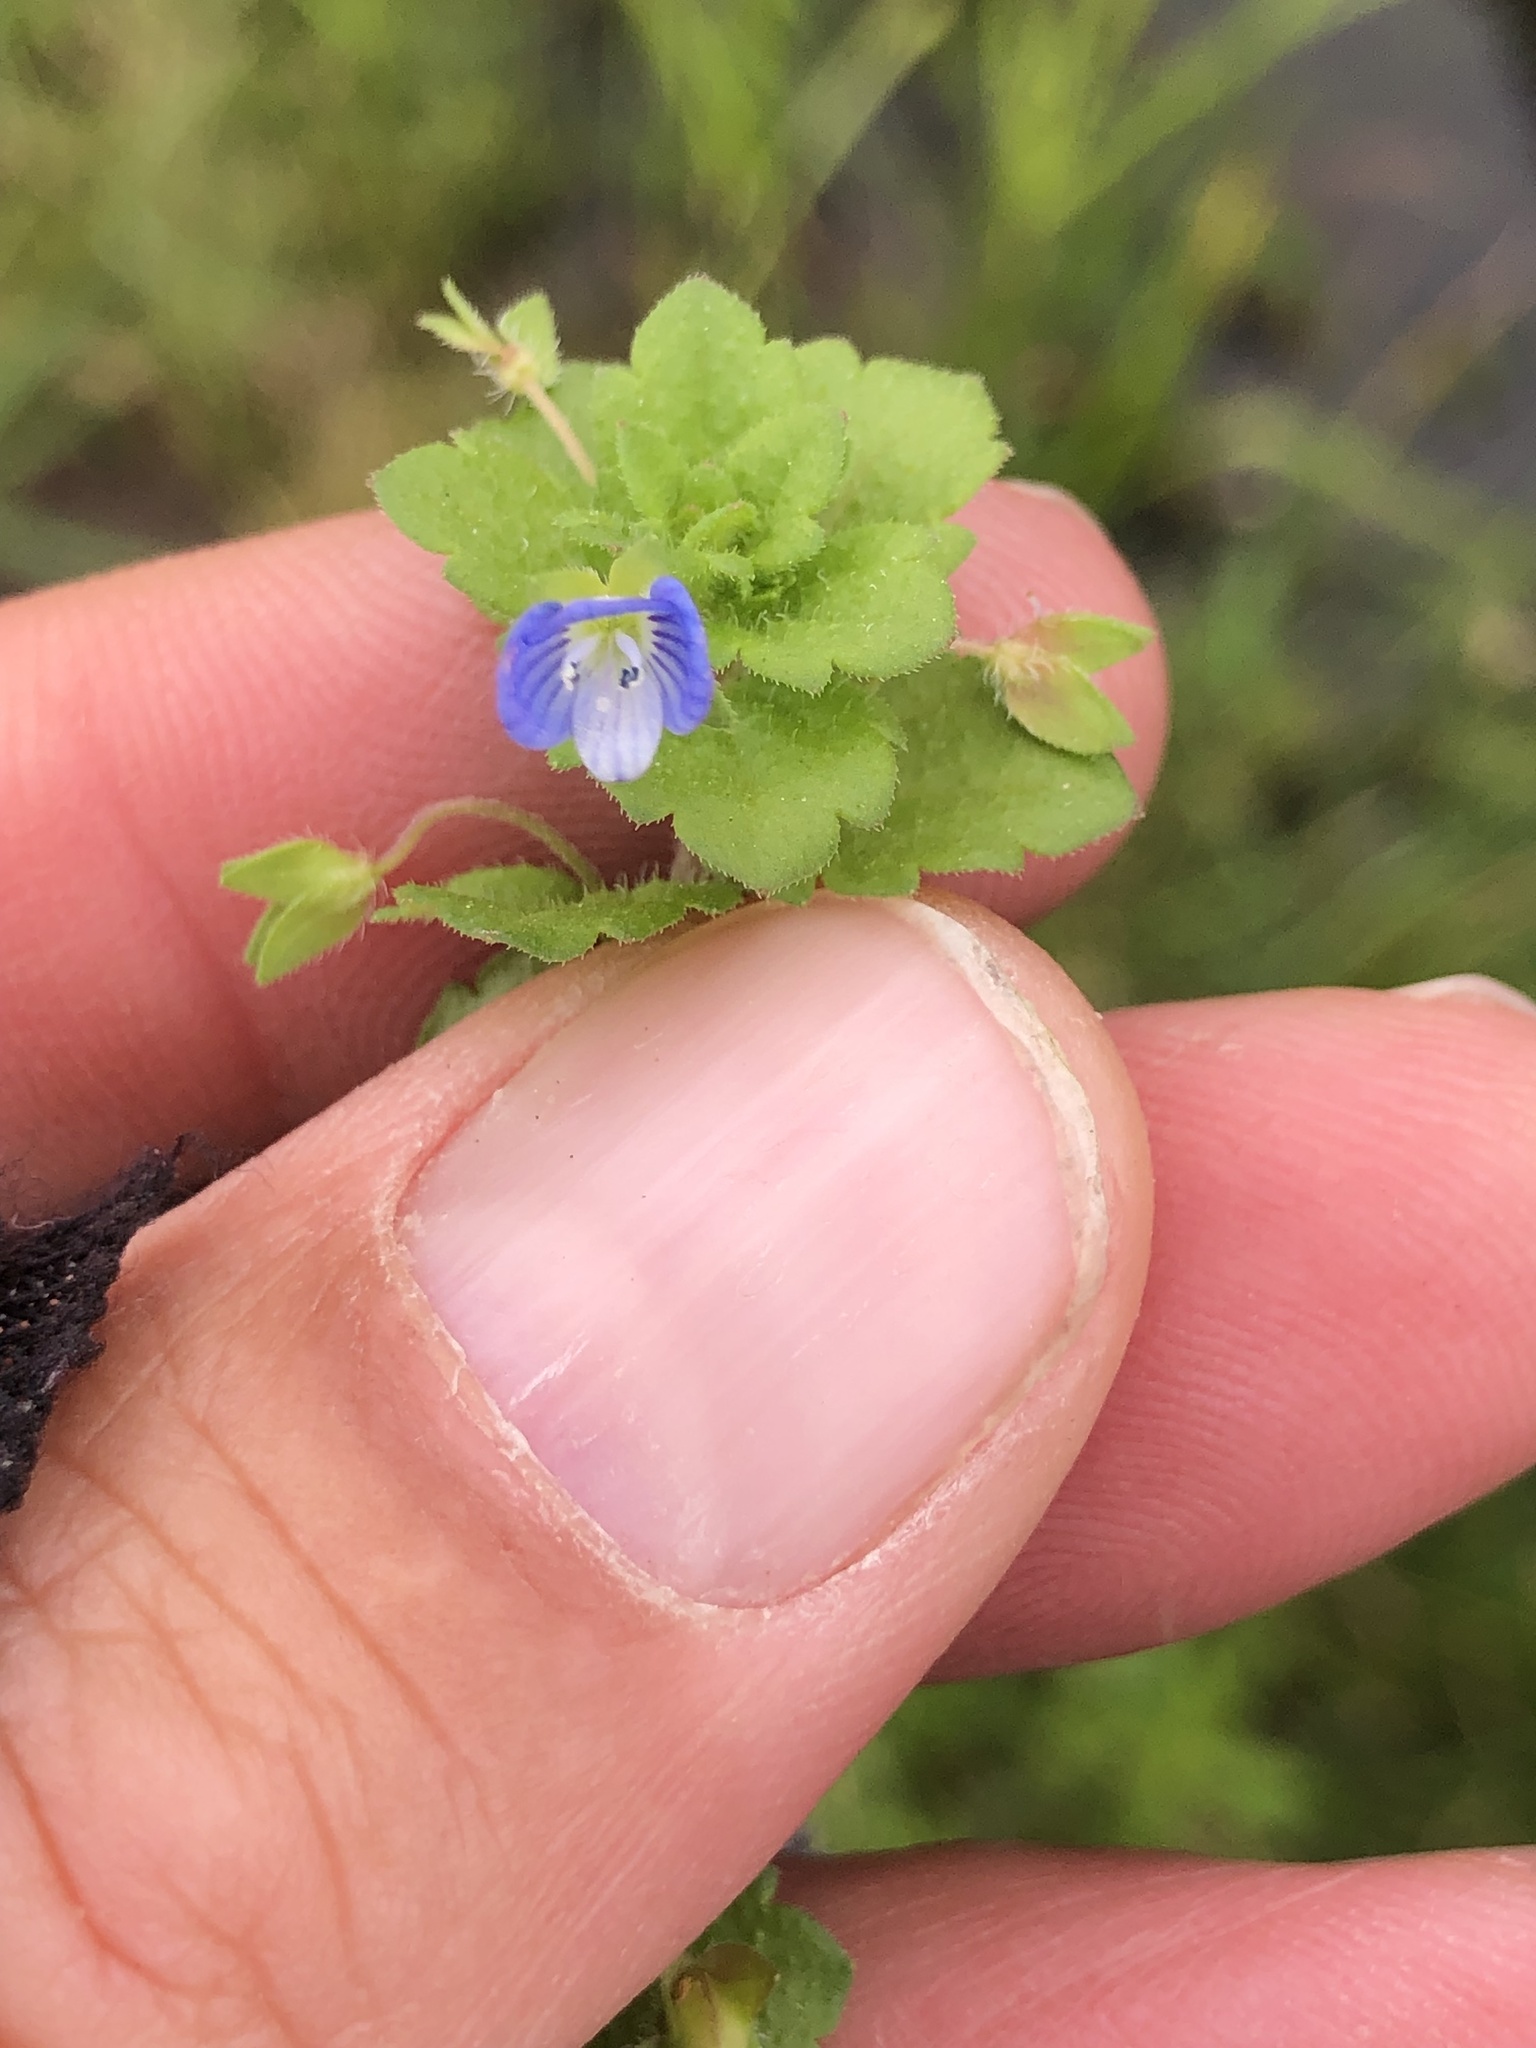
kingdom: Plantae
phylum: Tracheophyta
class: Magnoliopsida
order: Lamiales
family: Plantaginaceae
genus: Veronica
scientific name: Veronica persica
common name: Common field-speedwell
